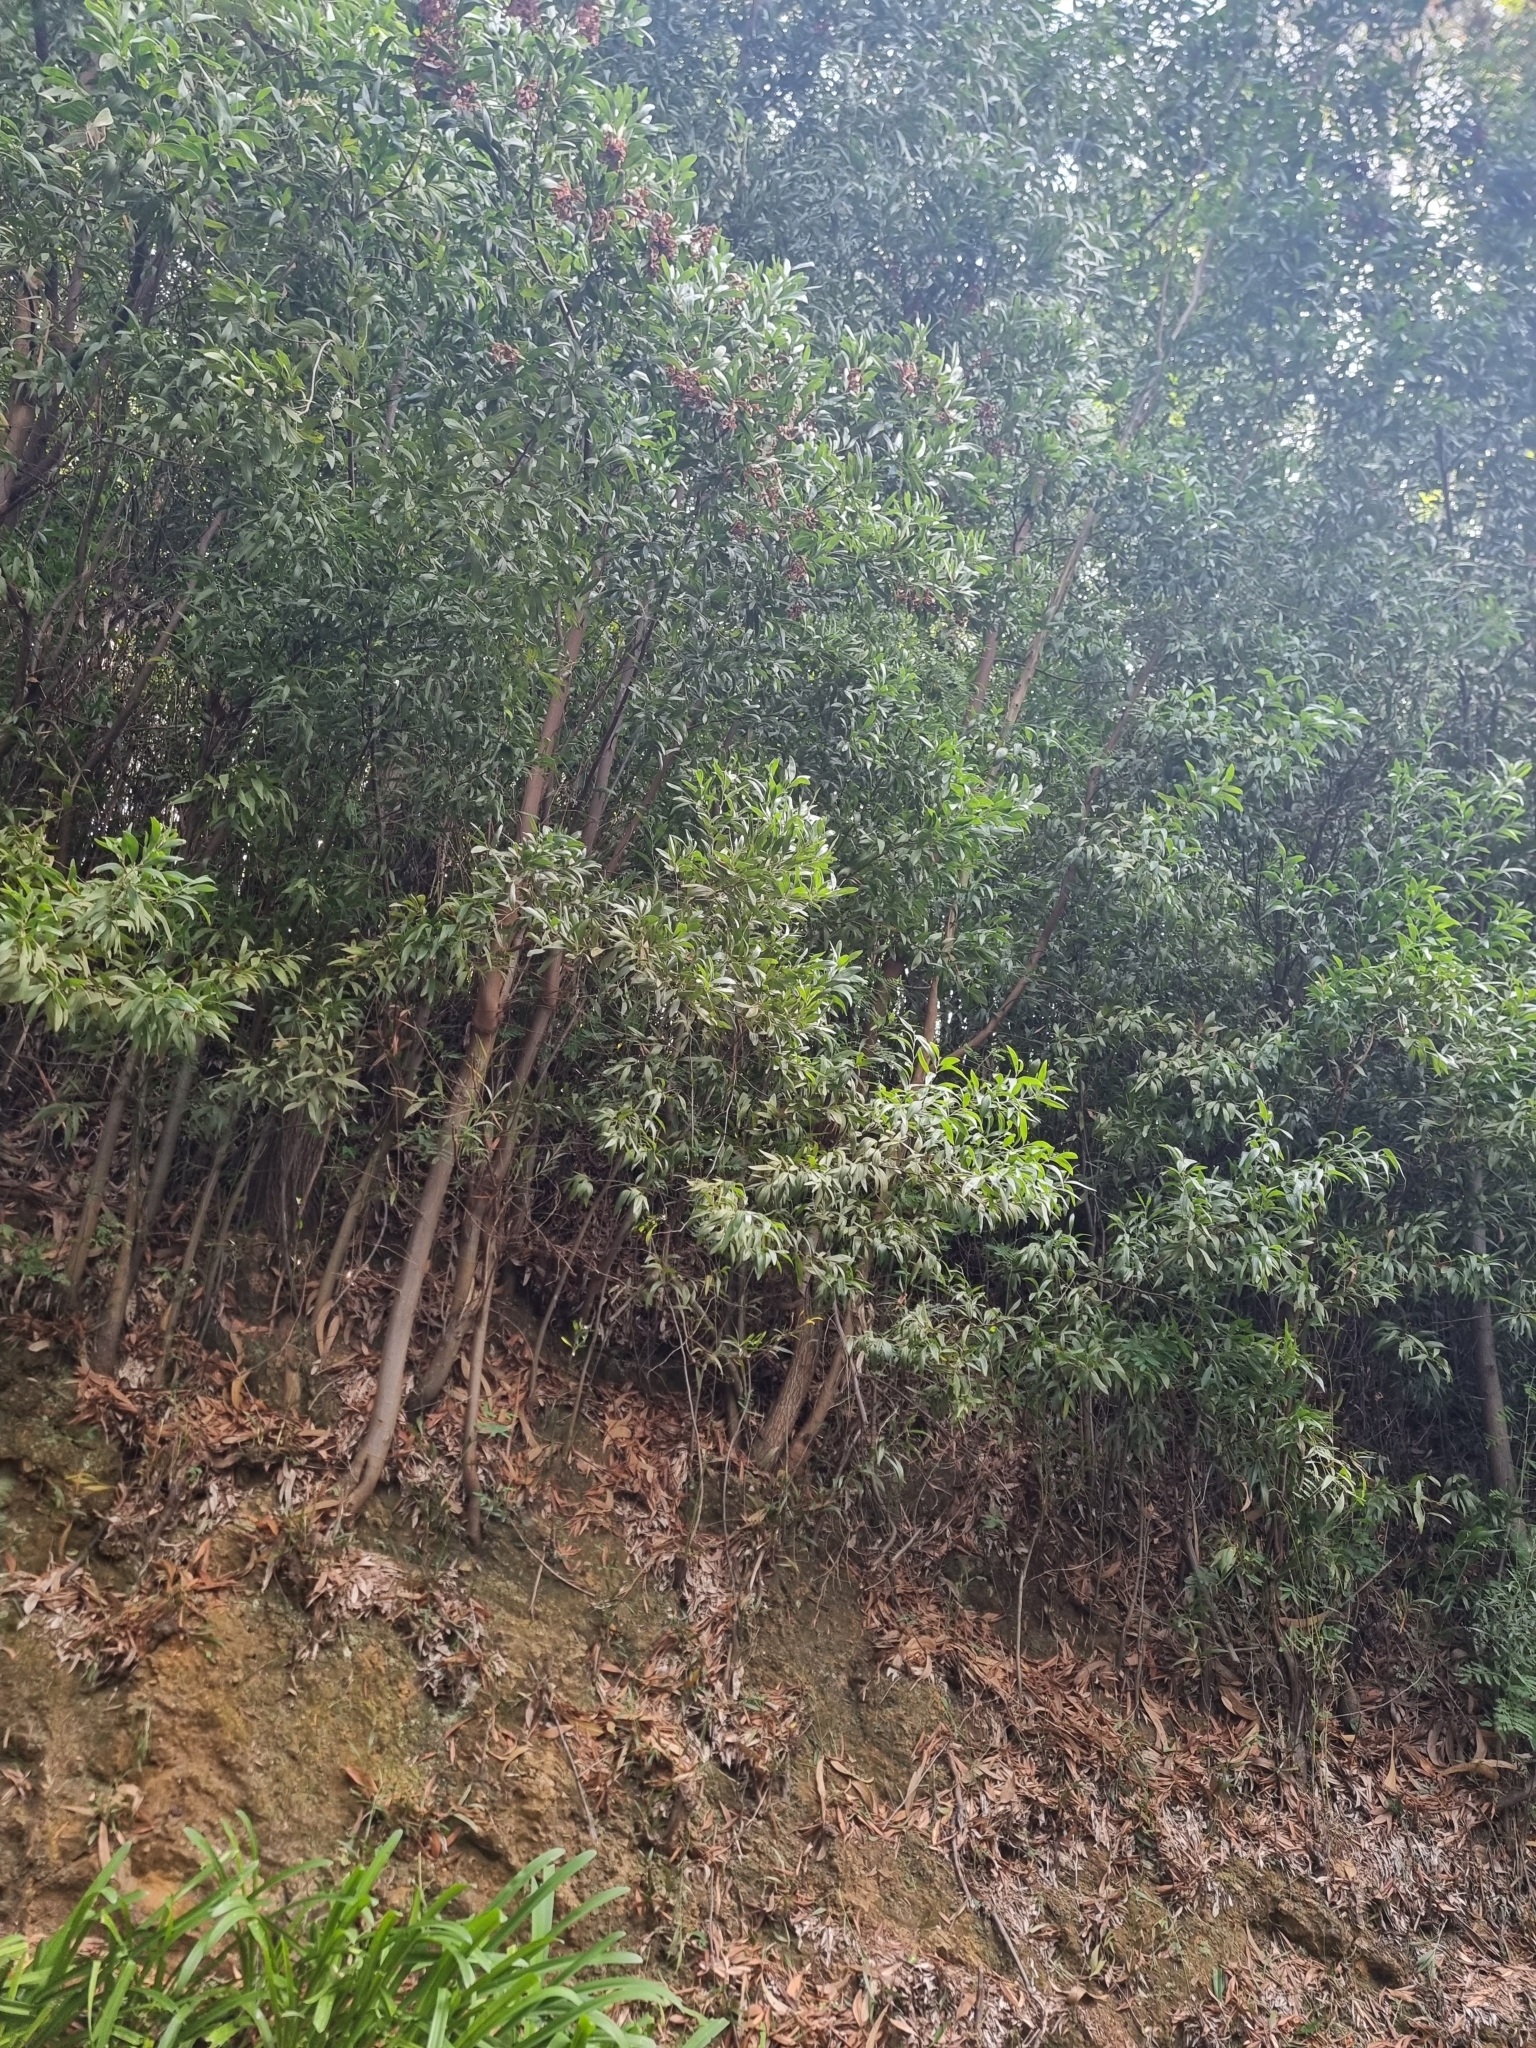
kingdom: Plantae
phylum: Tracheophyta
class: Magnoliopsida
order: Fabales
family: Fabaceae
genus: Acacia
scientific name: Acacia melanoxylon
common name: Blackwood
